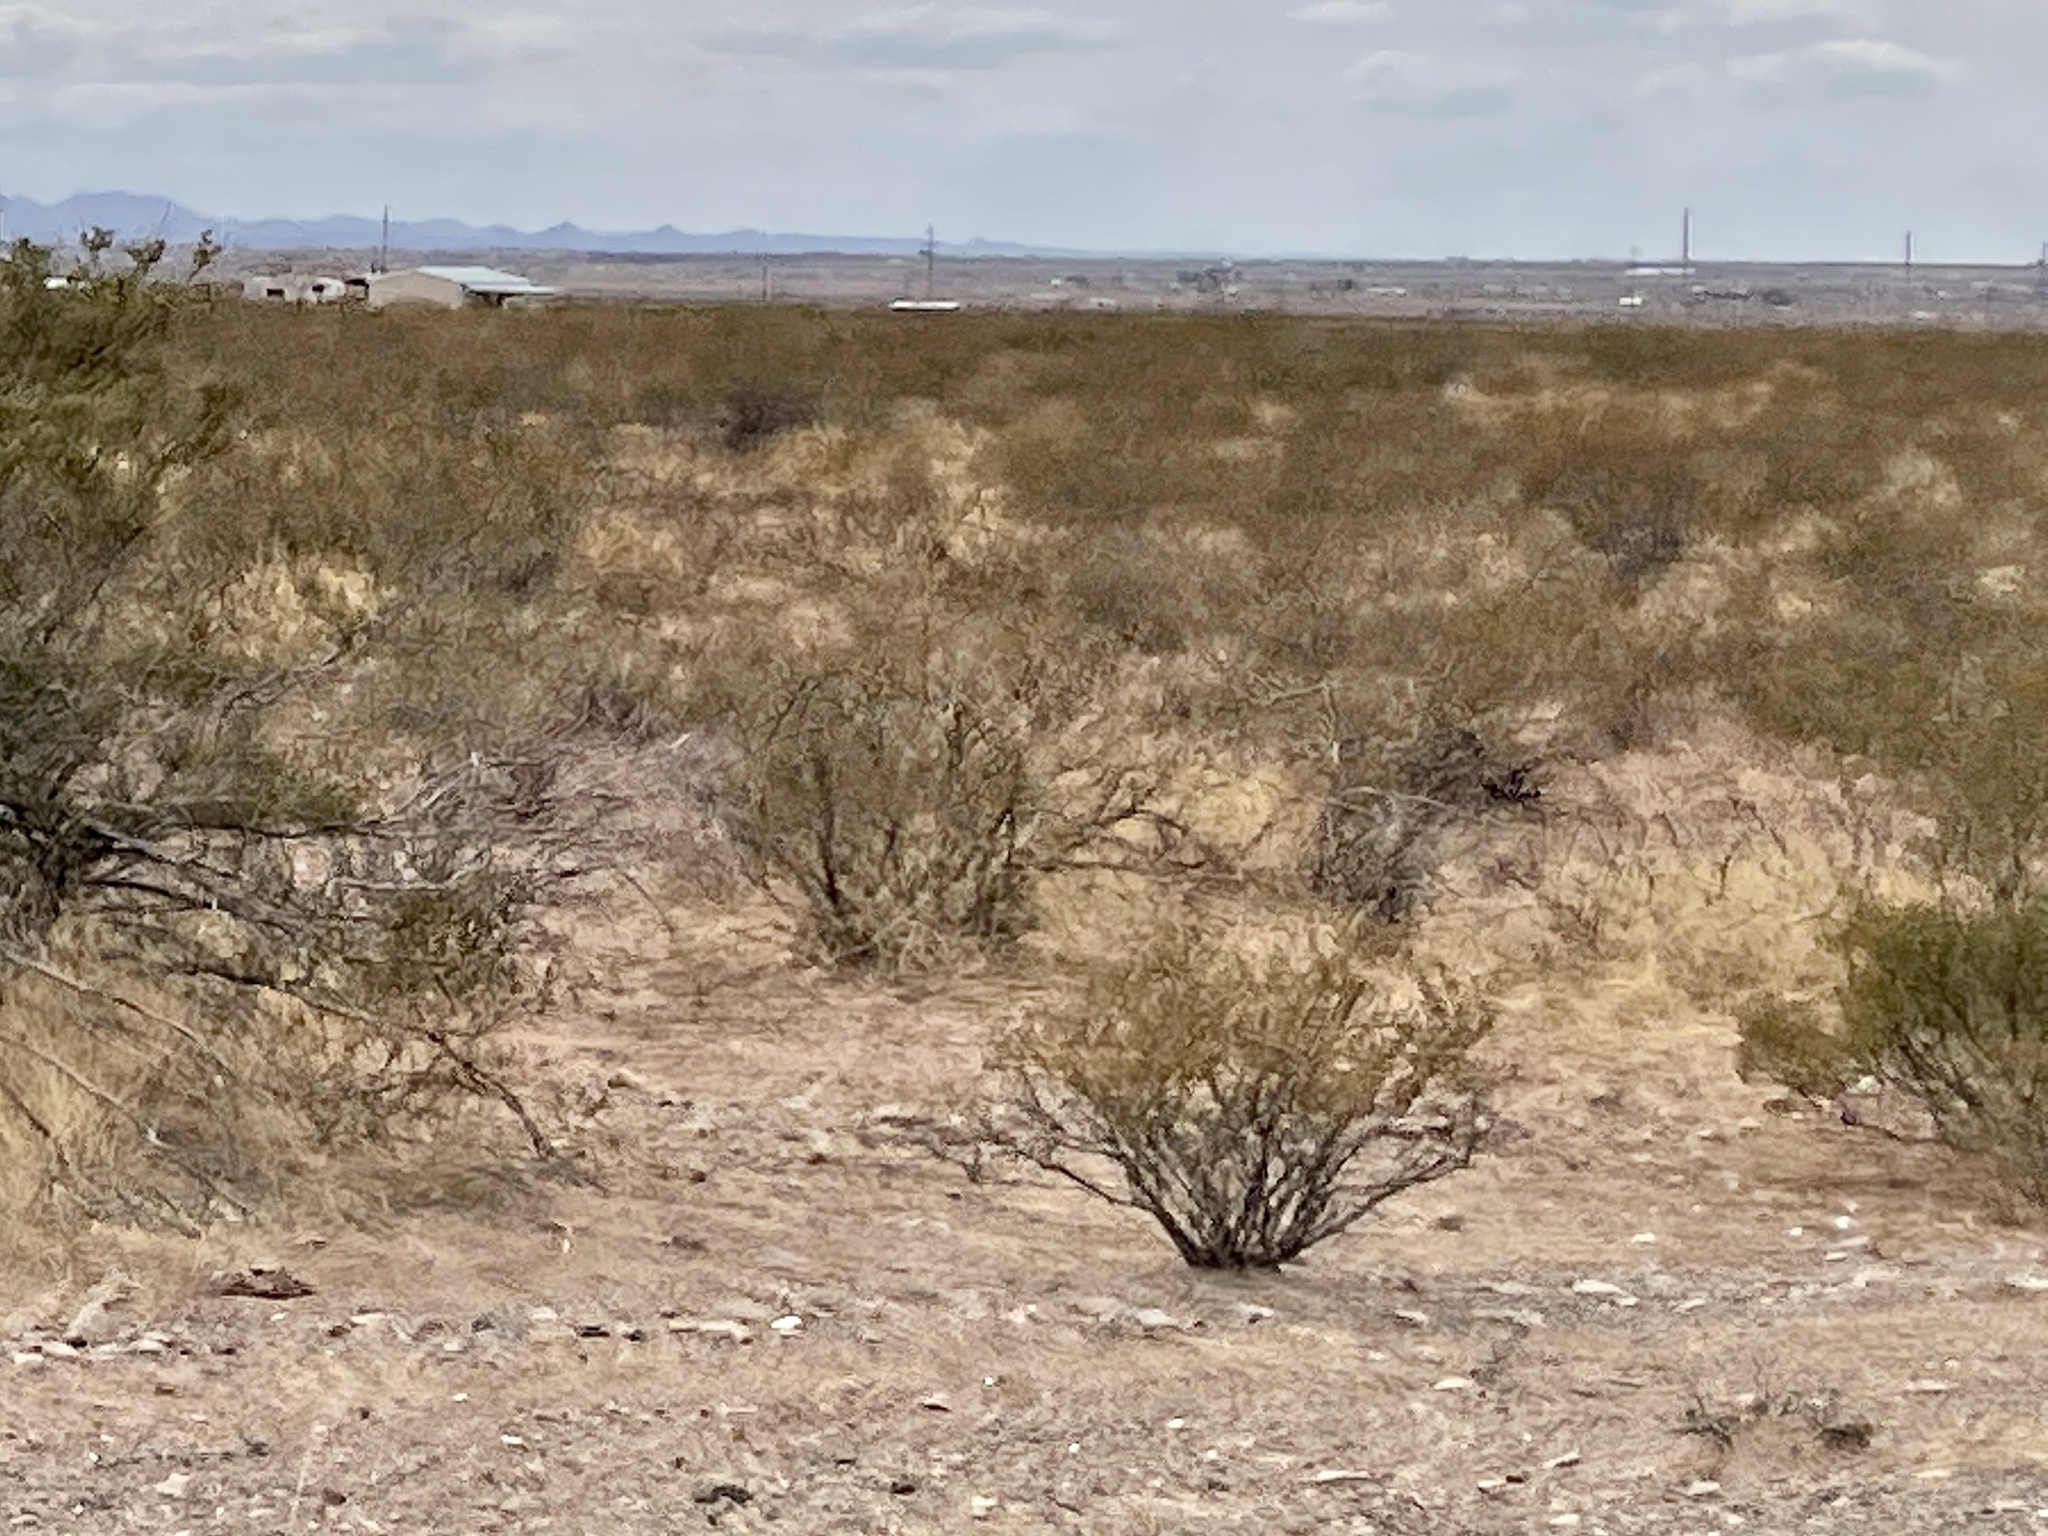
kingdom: Plantae
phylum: Tracheophyta
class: Magnoliopsida
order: Zygophyllales
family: Zygophyllaceae
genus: Larrea
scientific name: Larrea tridentata
